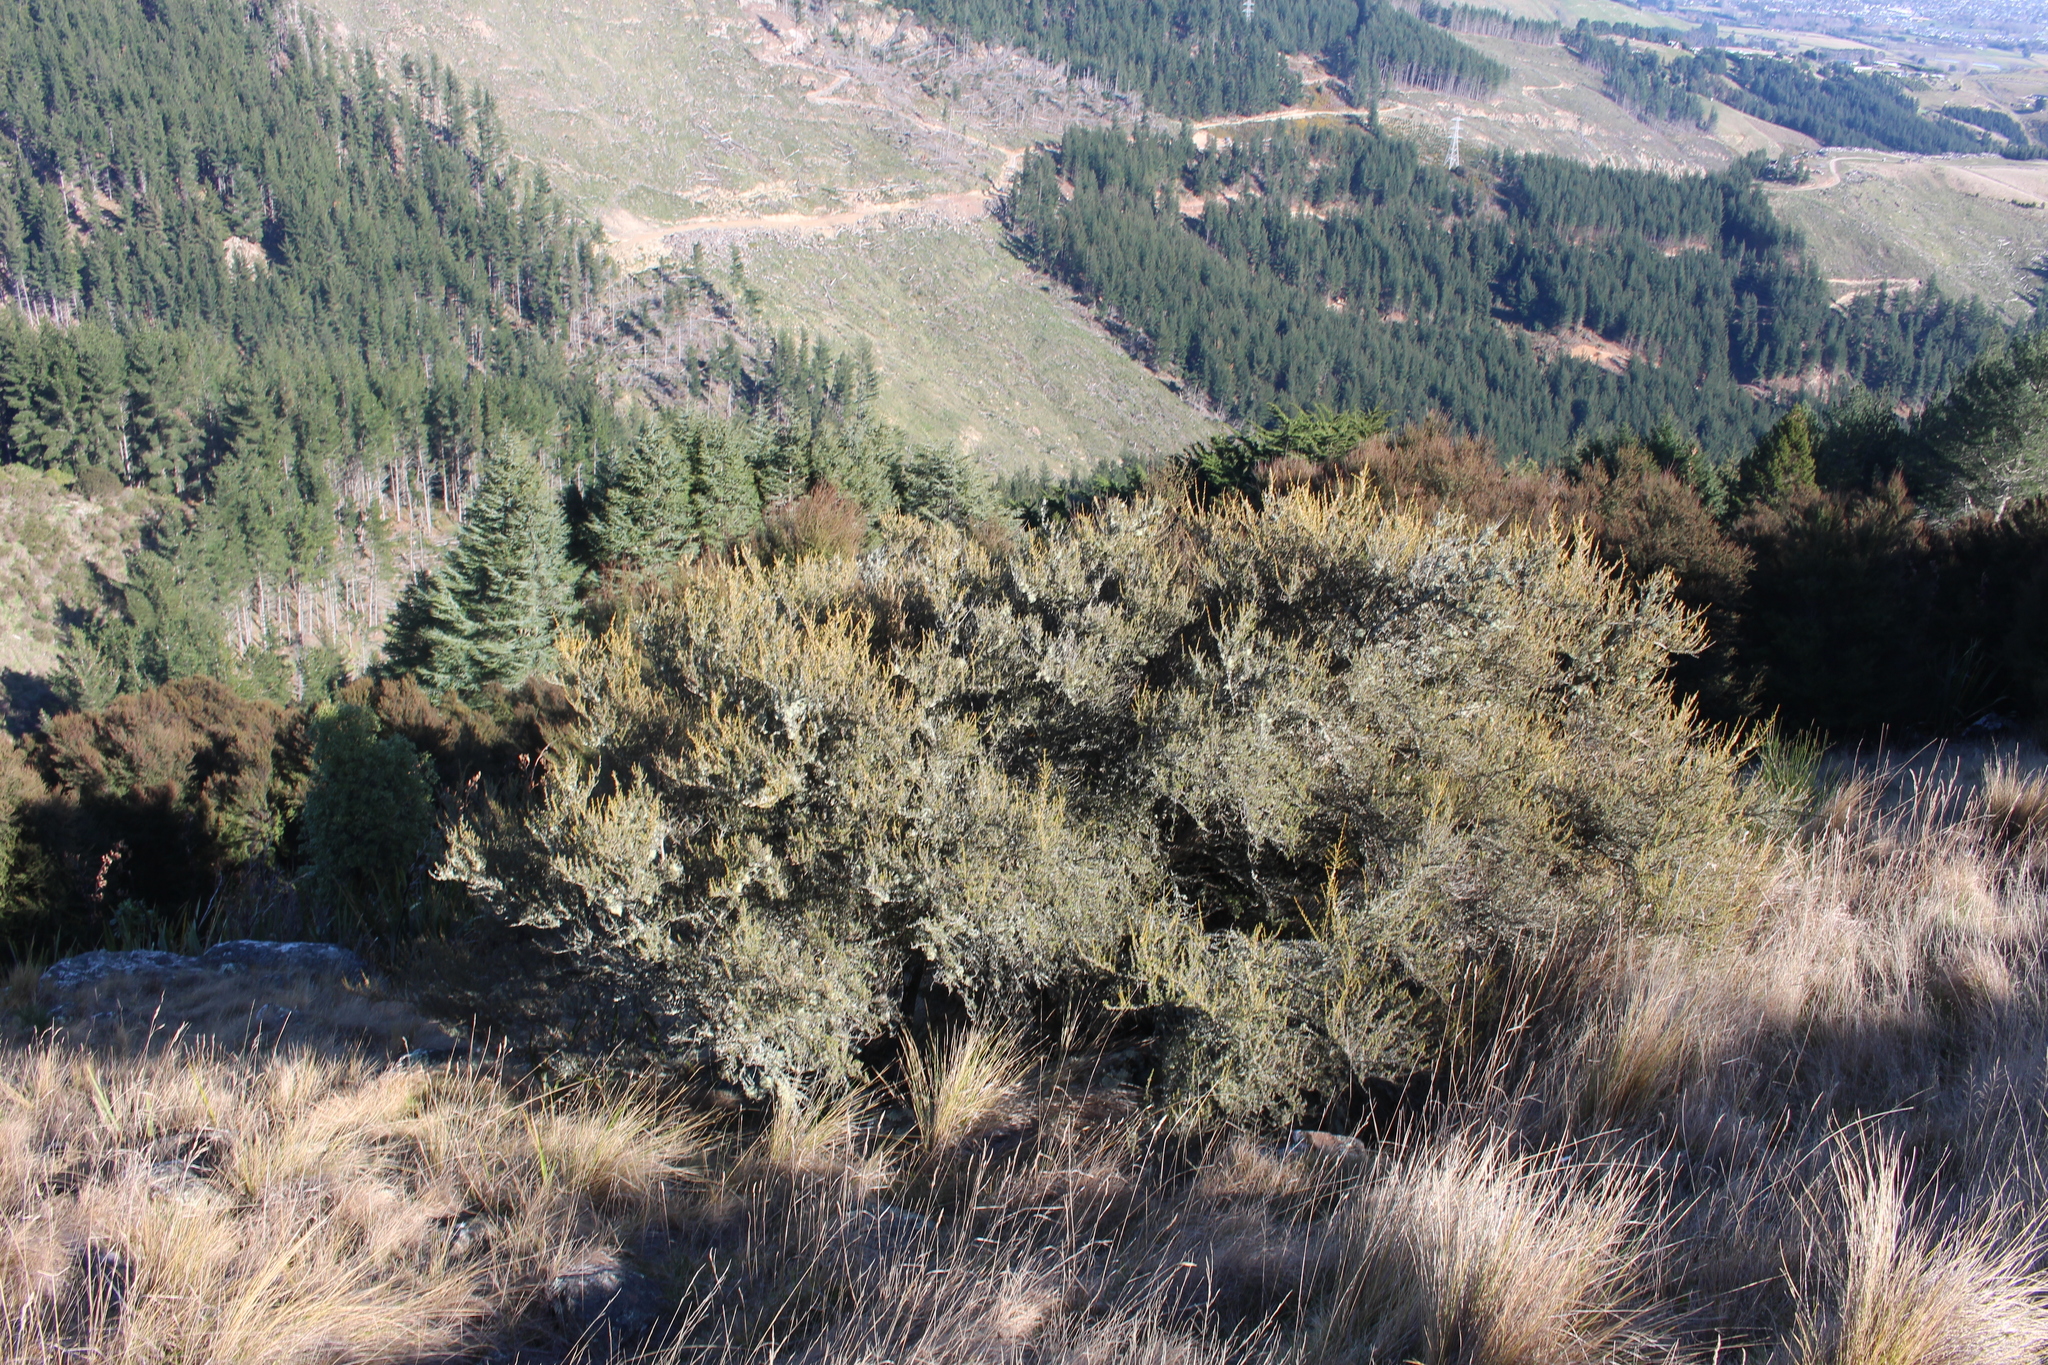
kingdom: Plantae
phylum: Tracheophyta
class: Magnoliopsida
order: Asterales
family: Asteraceae
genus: Olearia
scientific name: Olearia solandri
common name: Coastal daisybush
